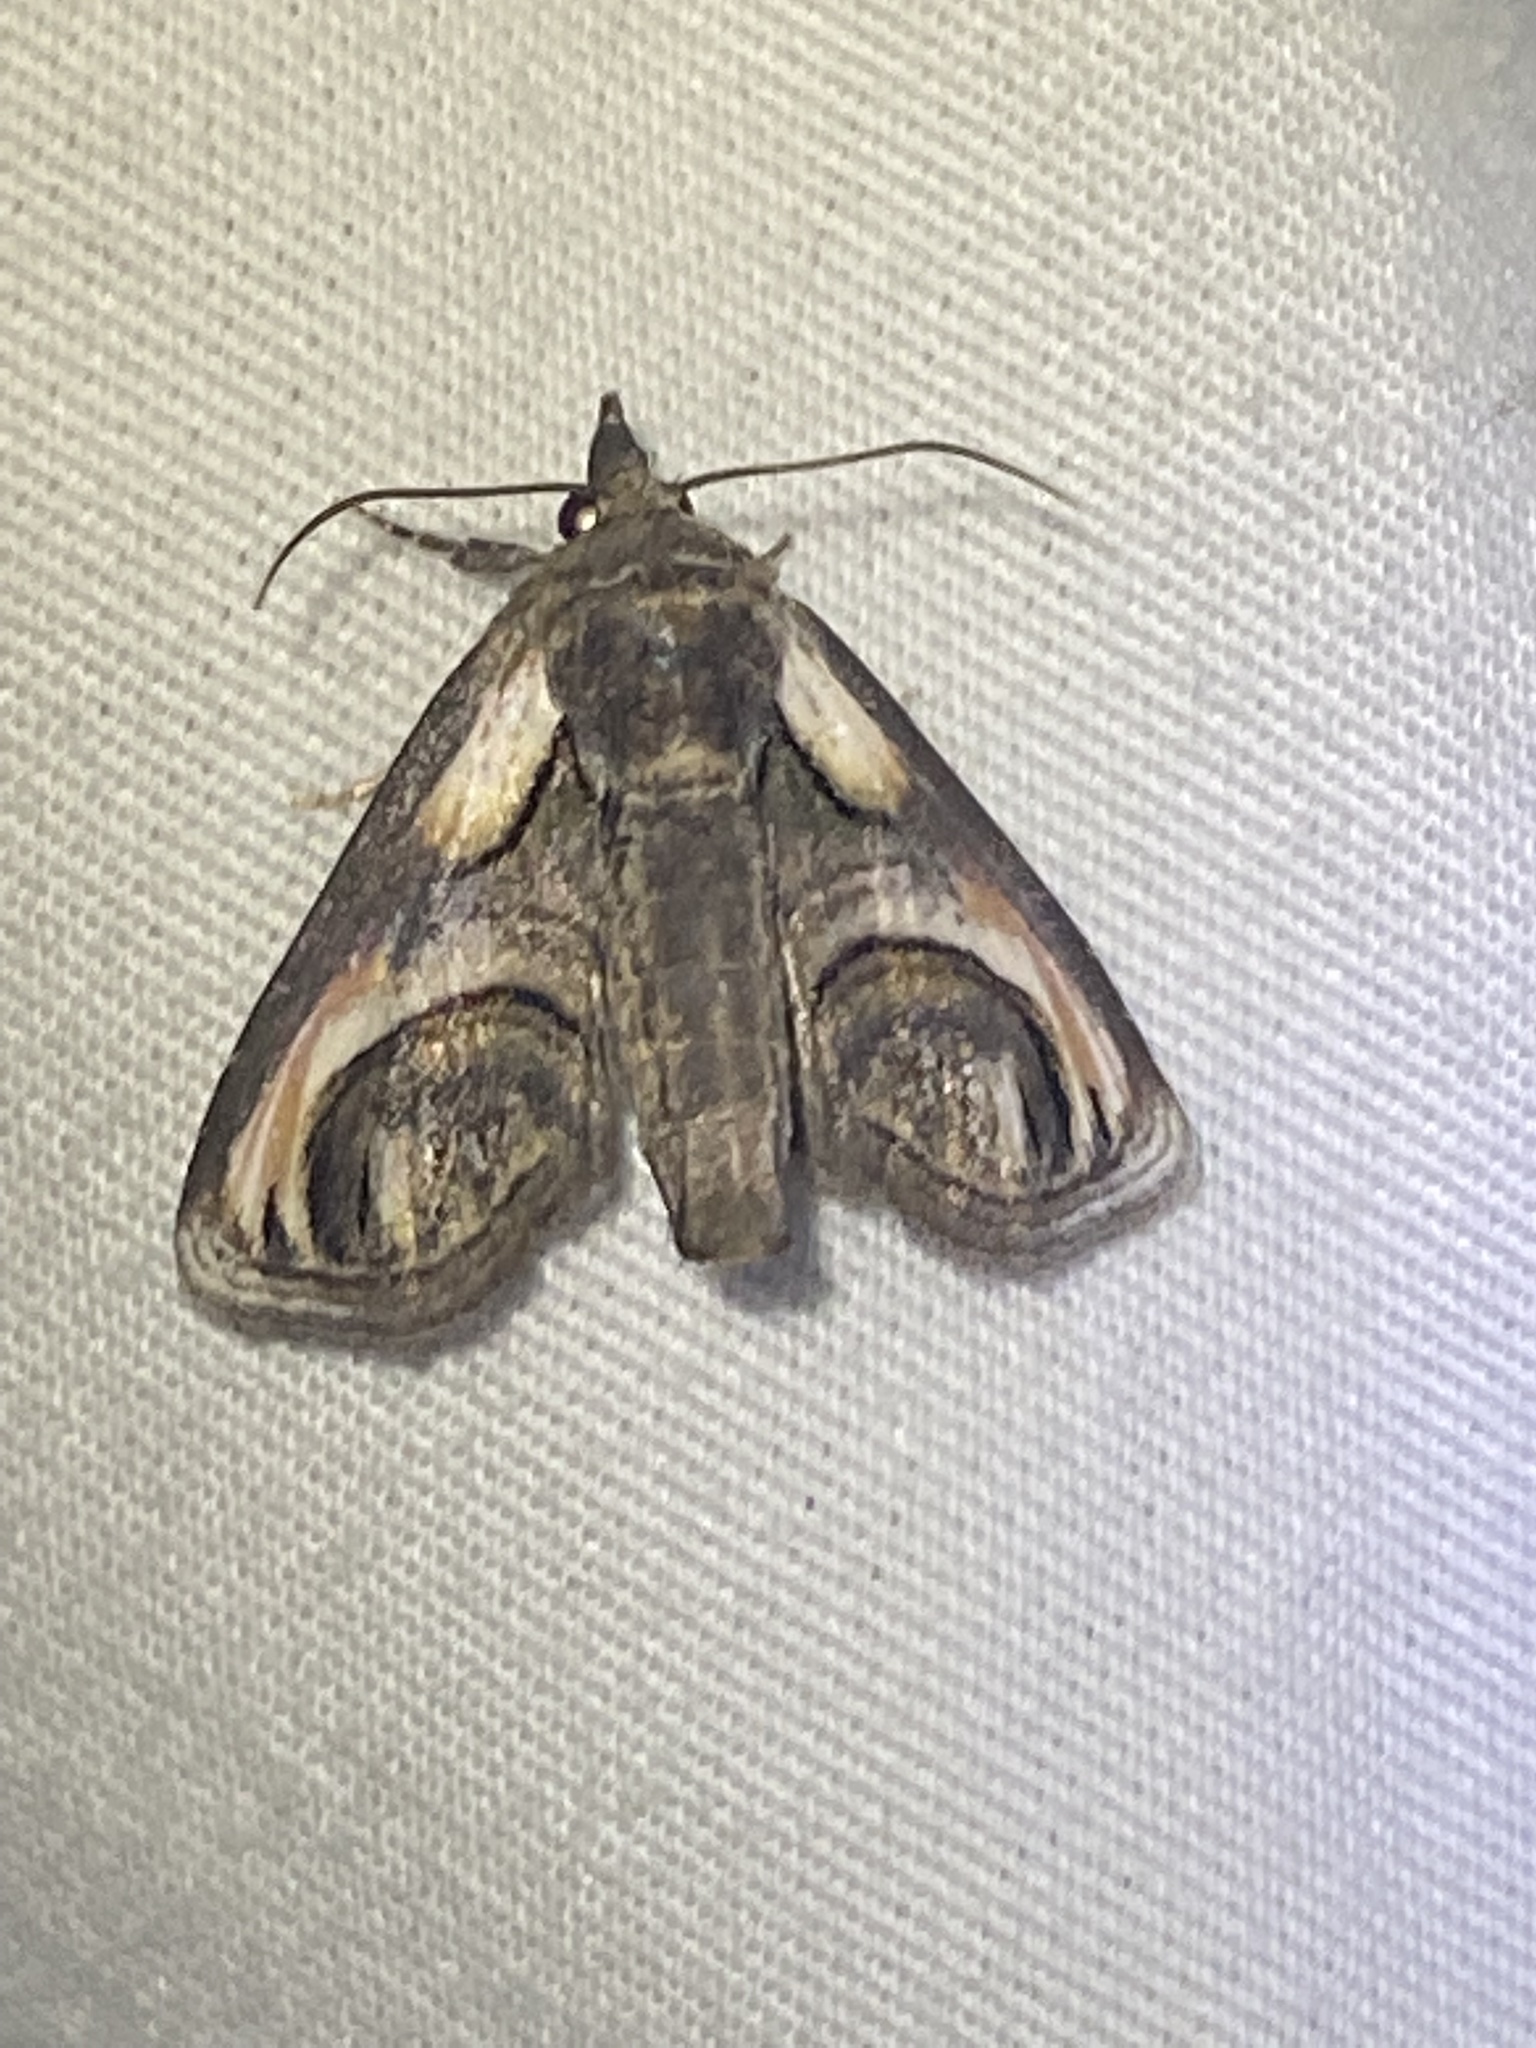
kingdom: Animalia
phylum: Arthropoda
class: Insecta
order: Lepidoptera
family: Euteliidae
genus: Paectes
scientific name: Paectes oculatrix
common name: Eyed paectes moth
